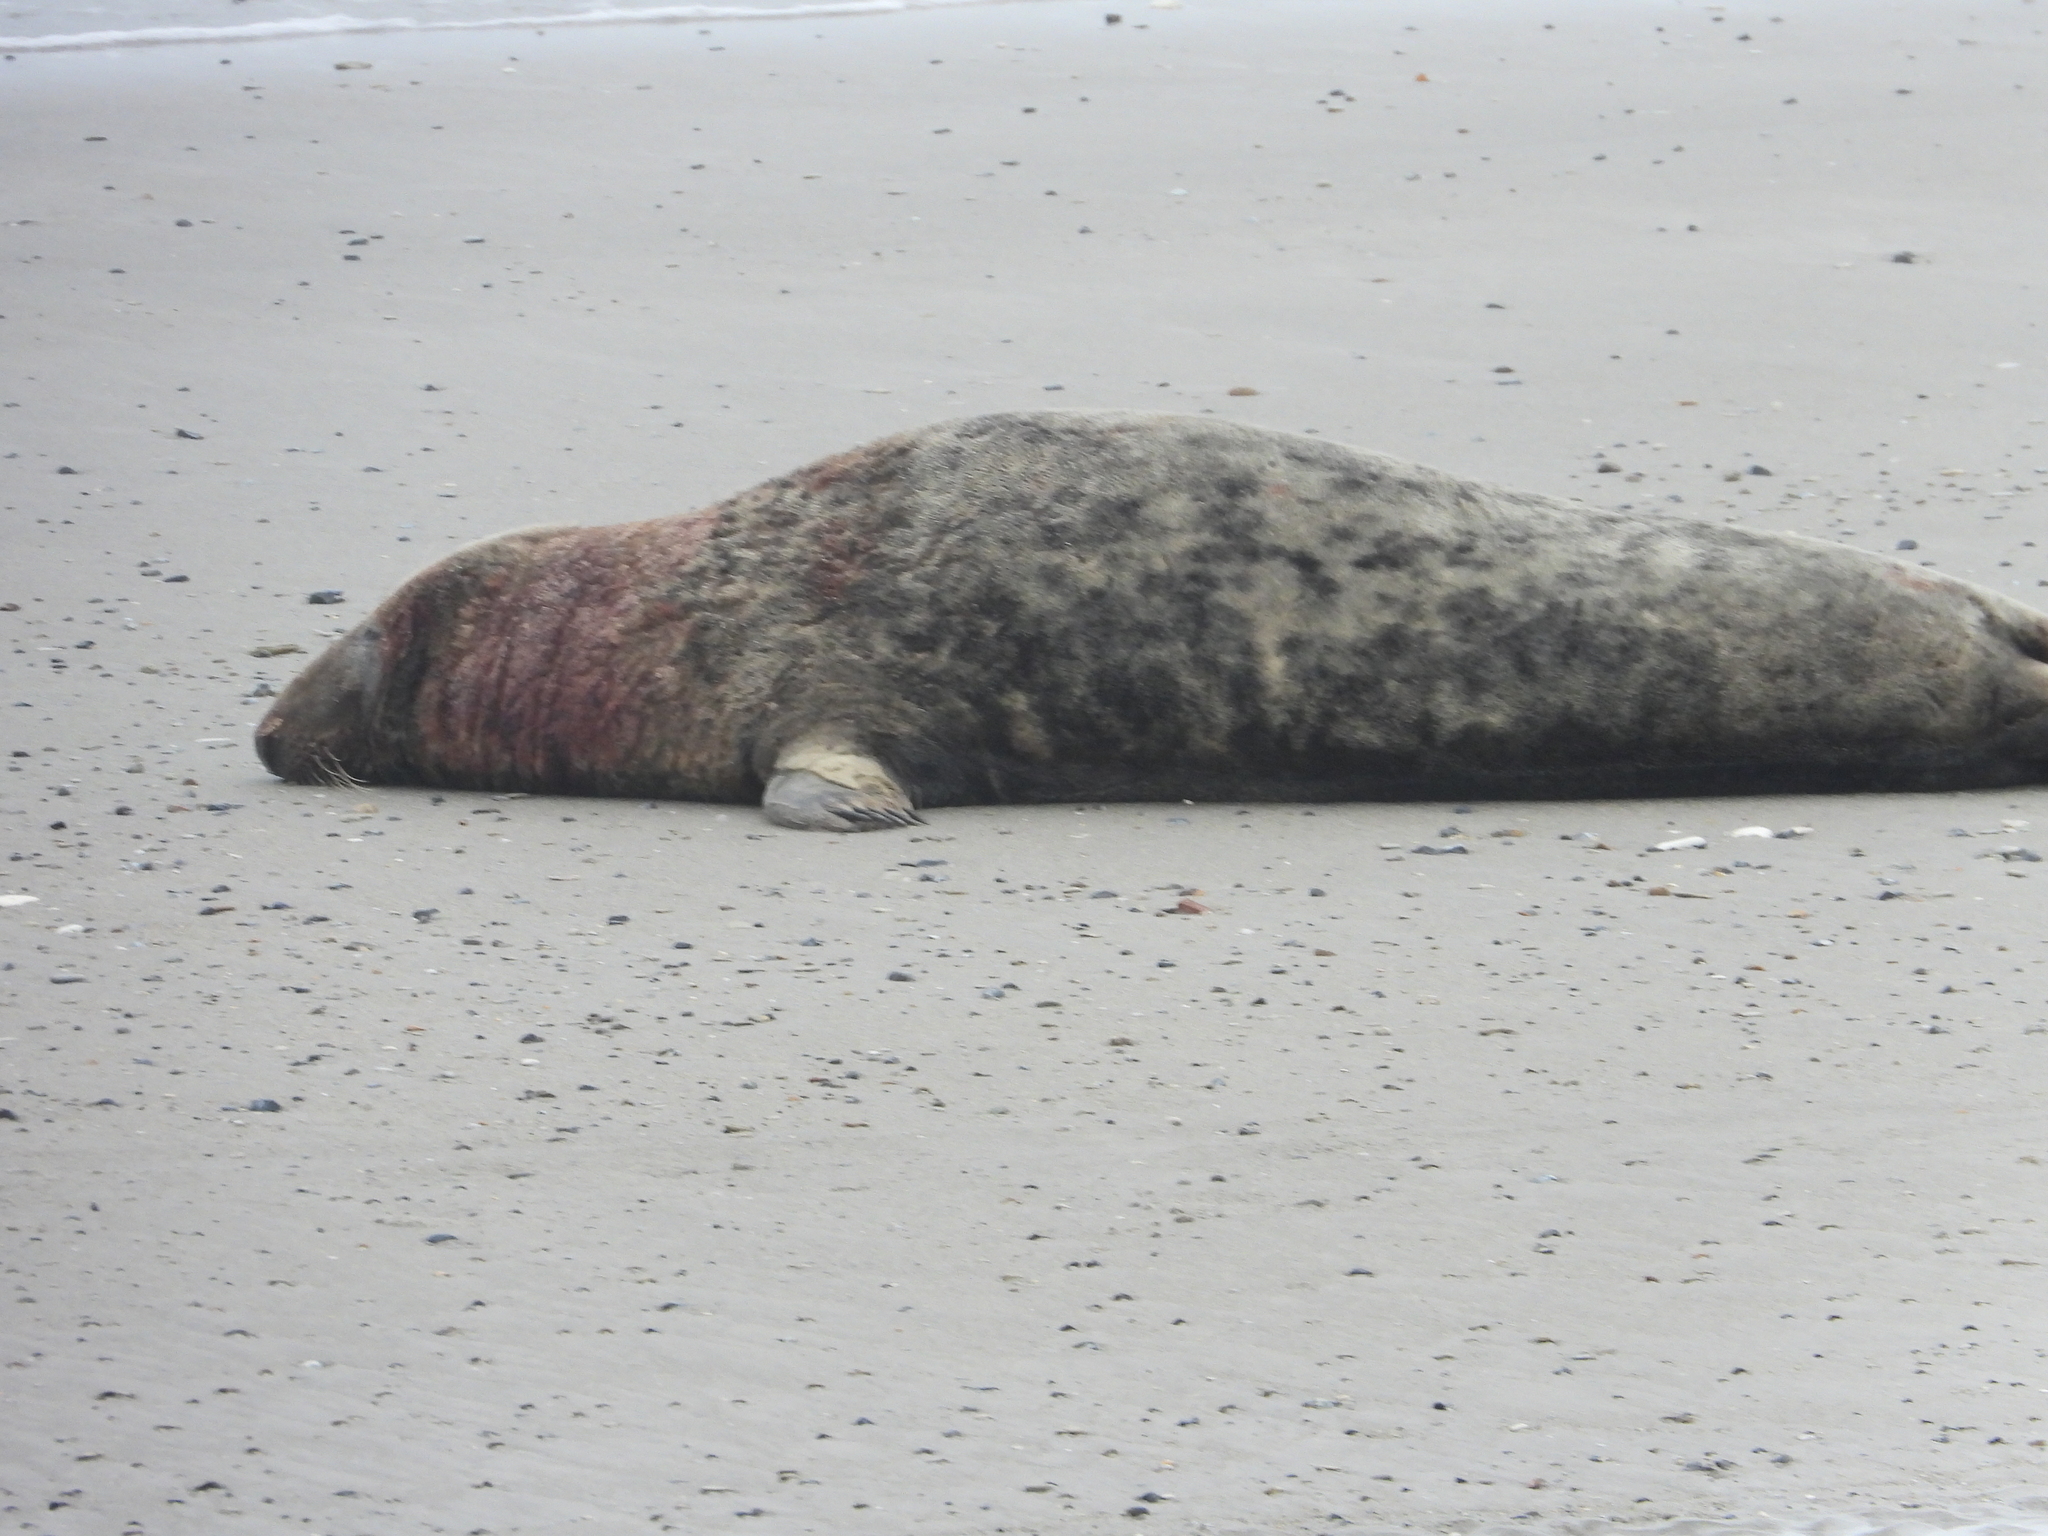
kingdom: Animalia
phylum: Chordata
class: Mammalia
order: Carnivora
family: Phocidae
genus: Halichoerus
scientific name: Halichoerus grypus
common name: Grey seal
